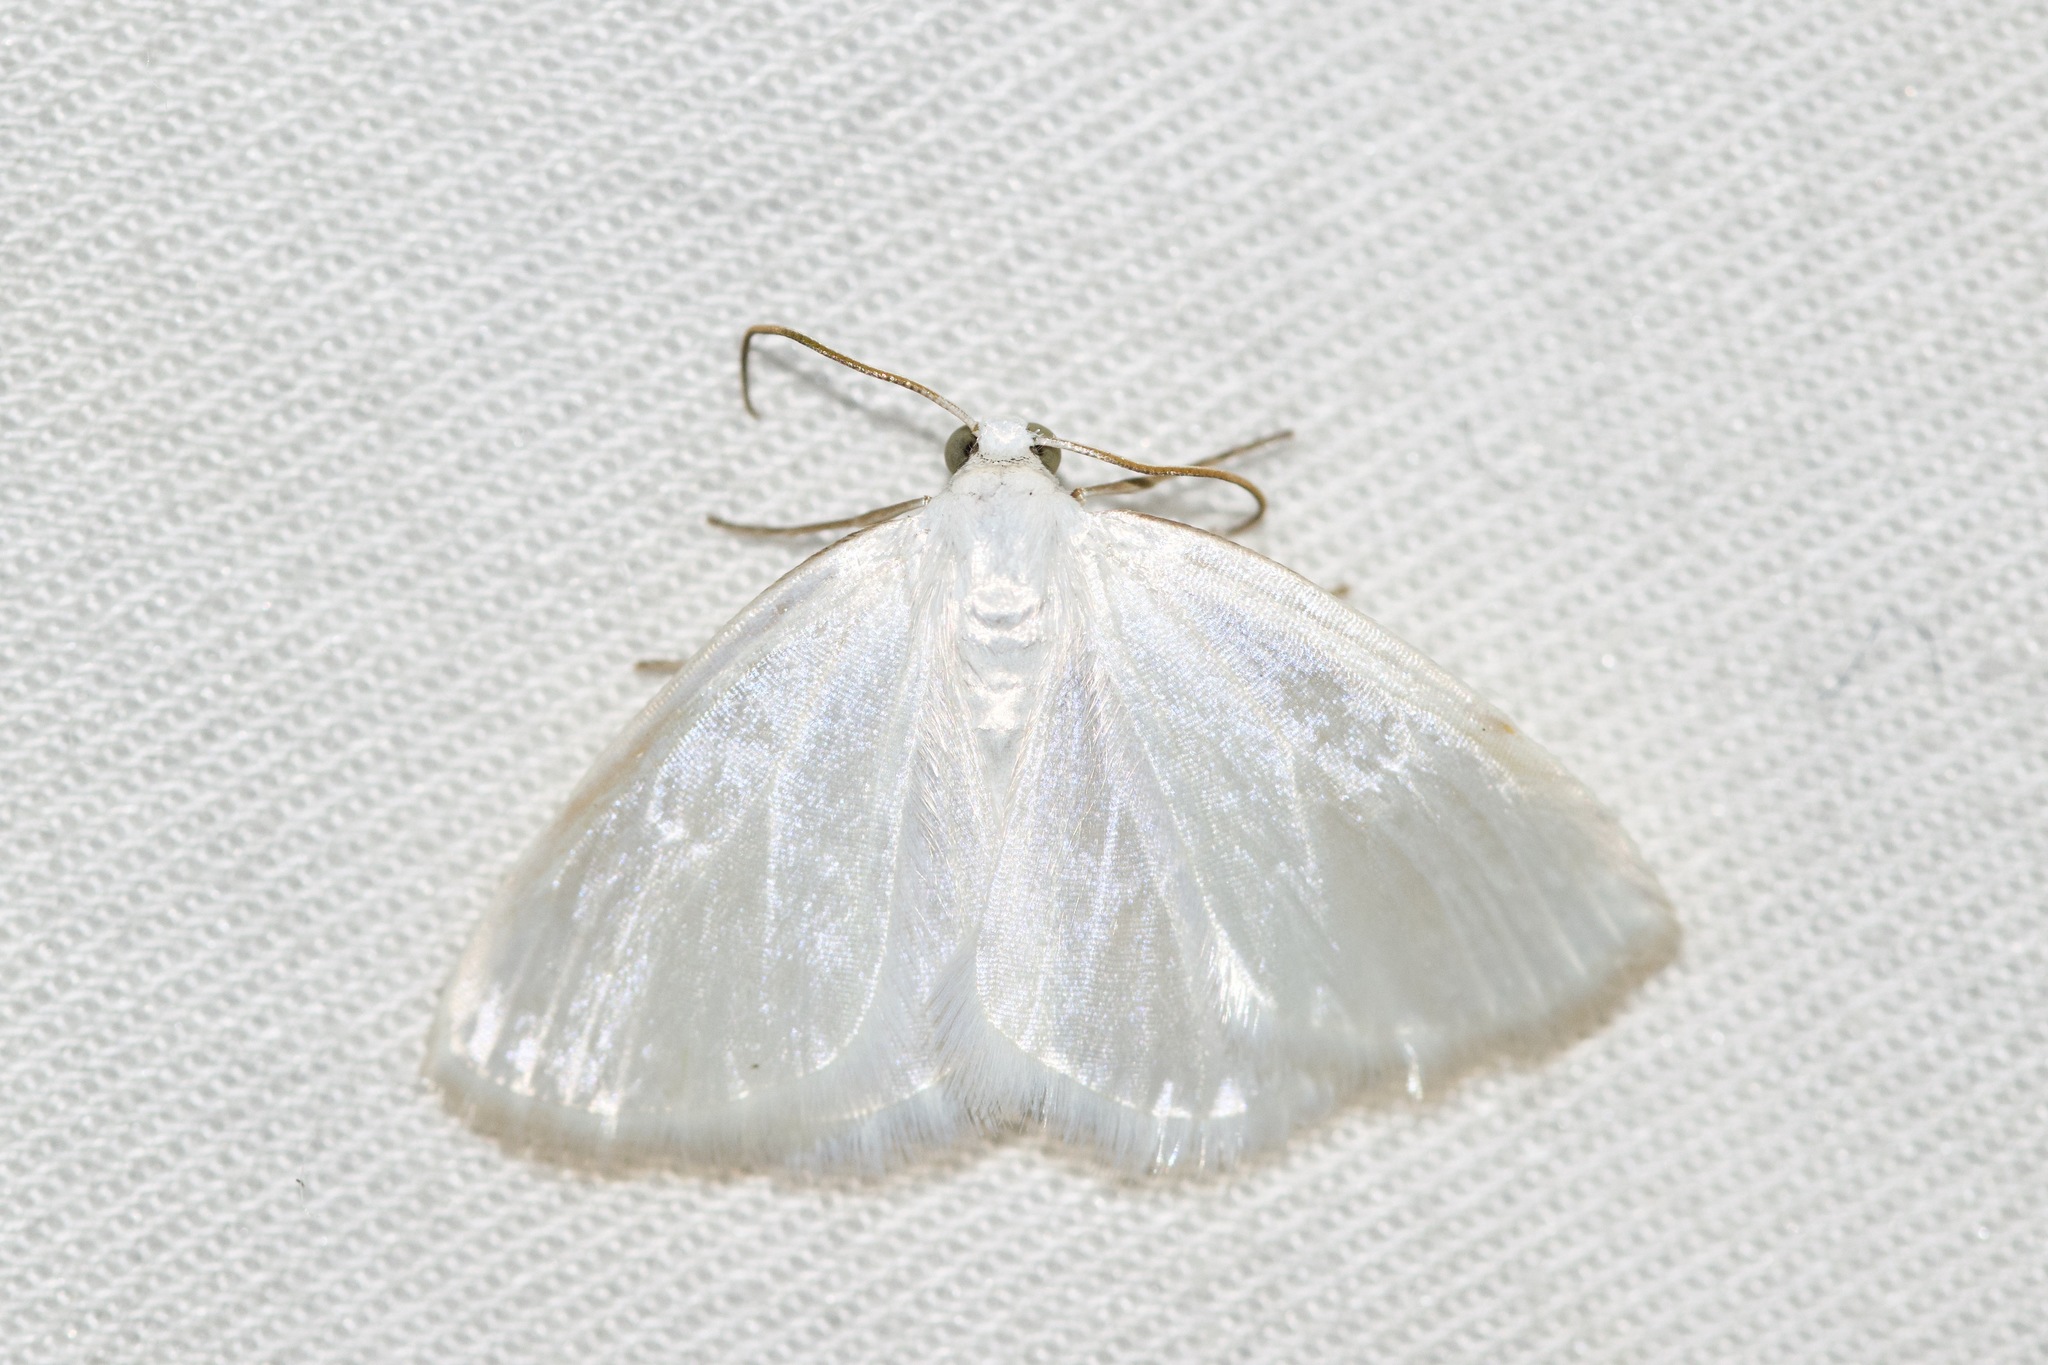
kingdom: Animalia
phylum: Arthropoda
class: Insecta
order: Lepidoptera
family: Geometridae
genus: Lomographa
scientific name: Lomographa vestaliata
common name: White spring moth
